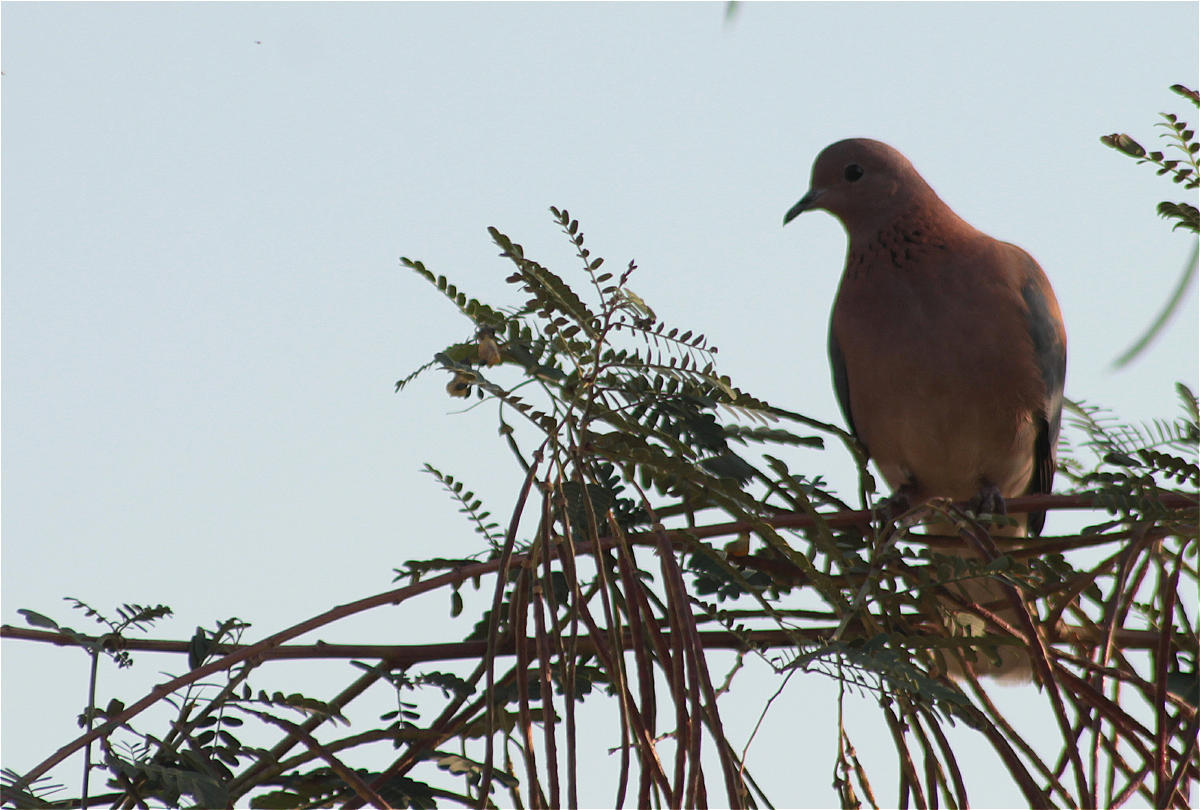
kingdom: Animalia
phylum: Chordata
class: Aves
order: Columbiformes
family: Columbidae
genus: Spilopelia
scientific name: Spilopelia senegalensis
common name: Laughing dove
